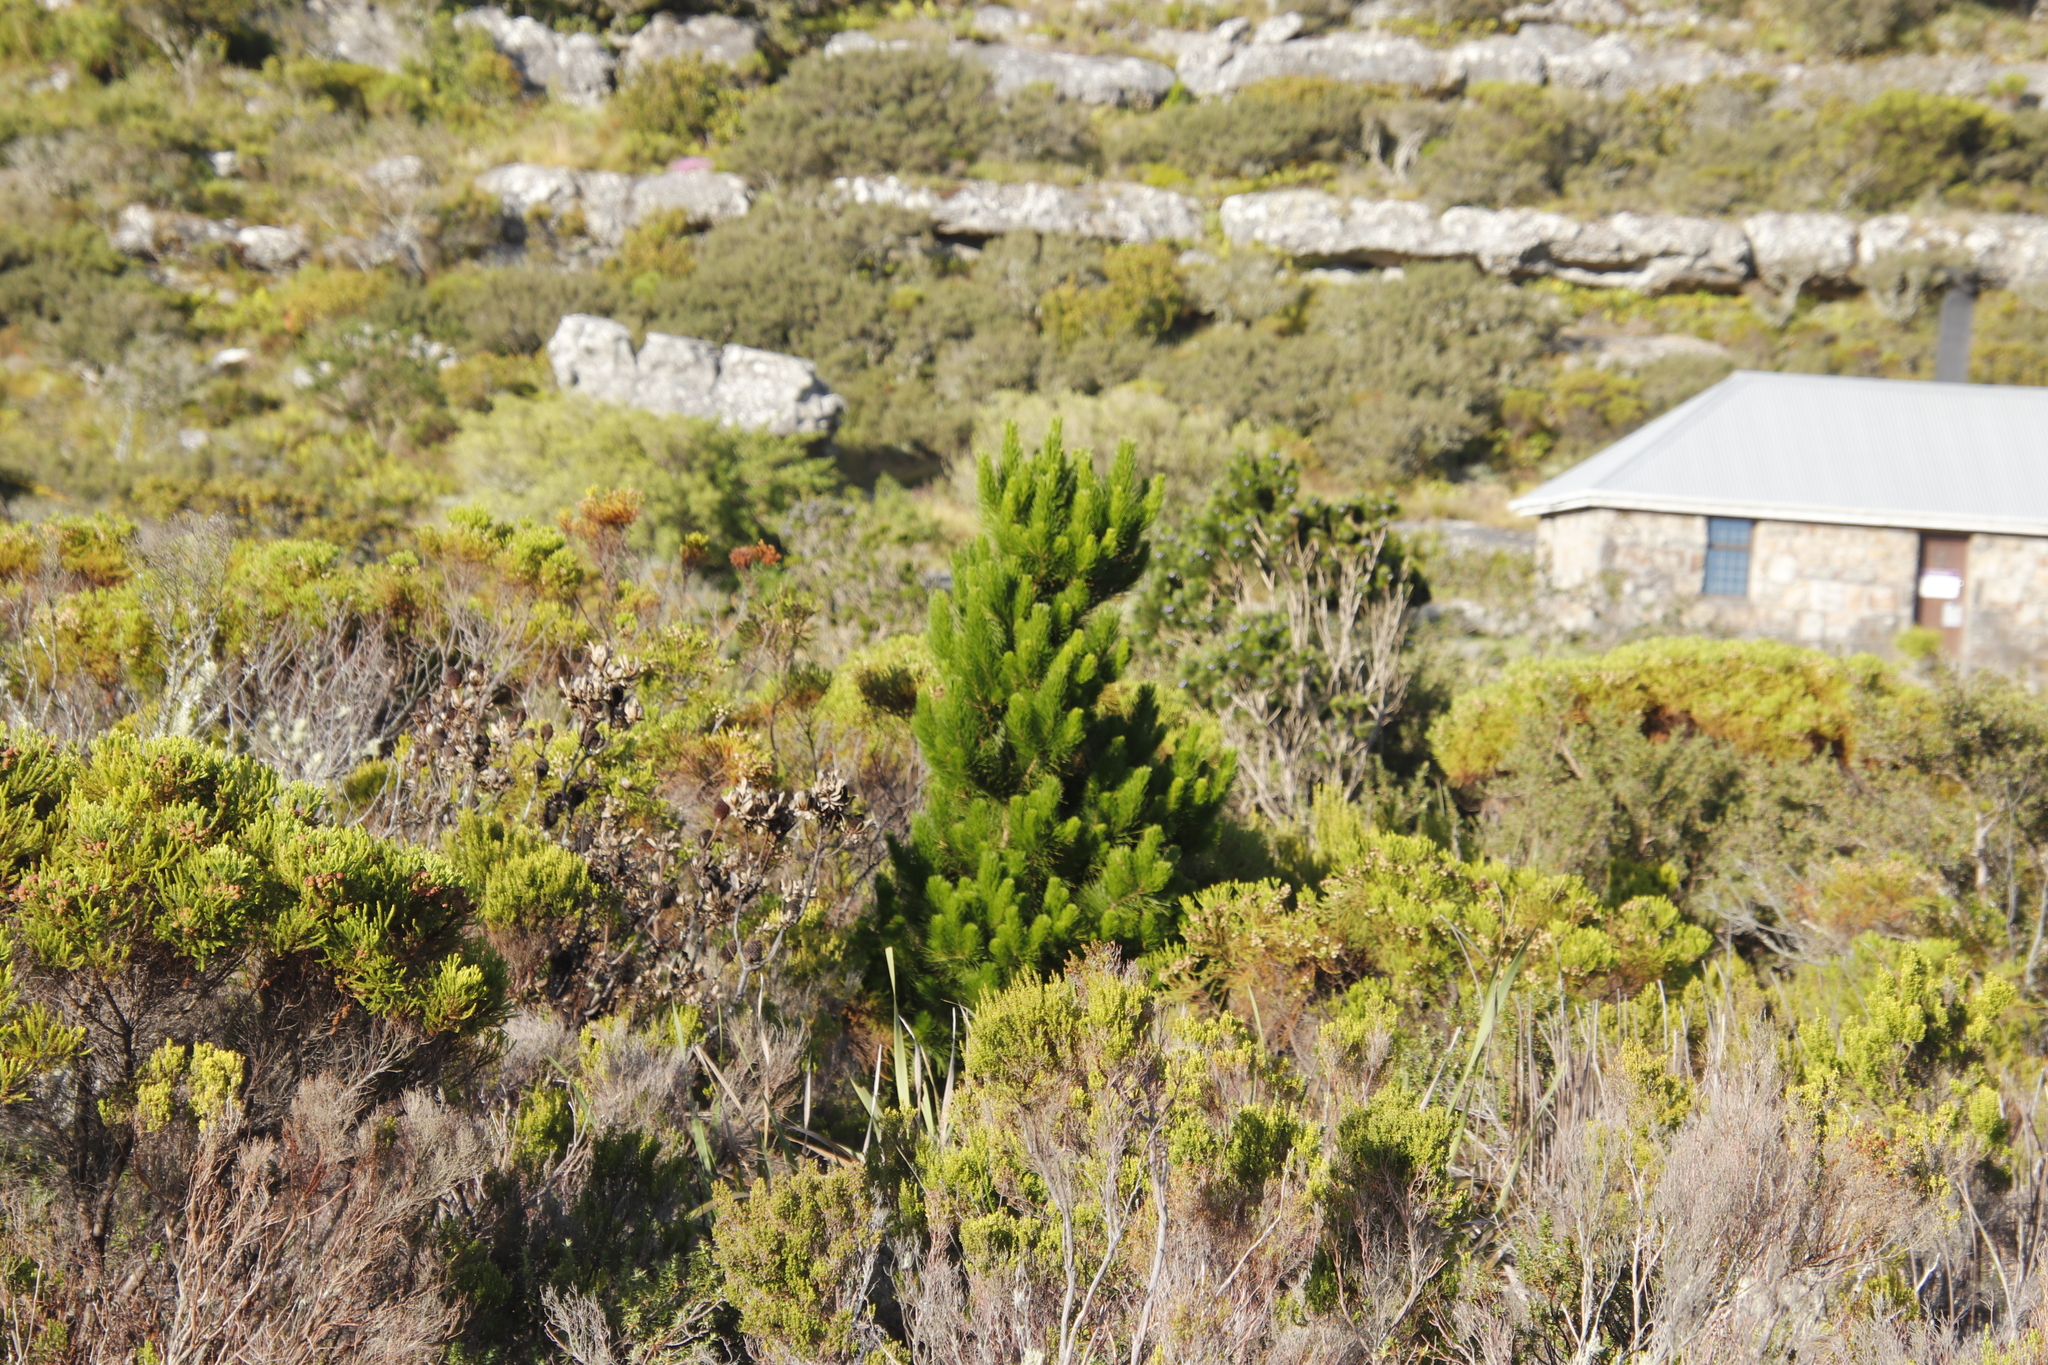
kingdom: Plantae
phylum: Tracheophyta
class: Pinopsida
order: Pinales
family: Pinaceae
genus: Pinus
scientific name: Pinus radiata
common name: Monterey pine
